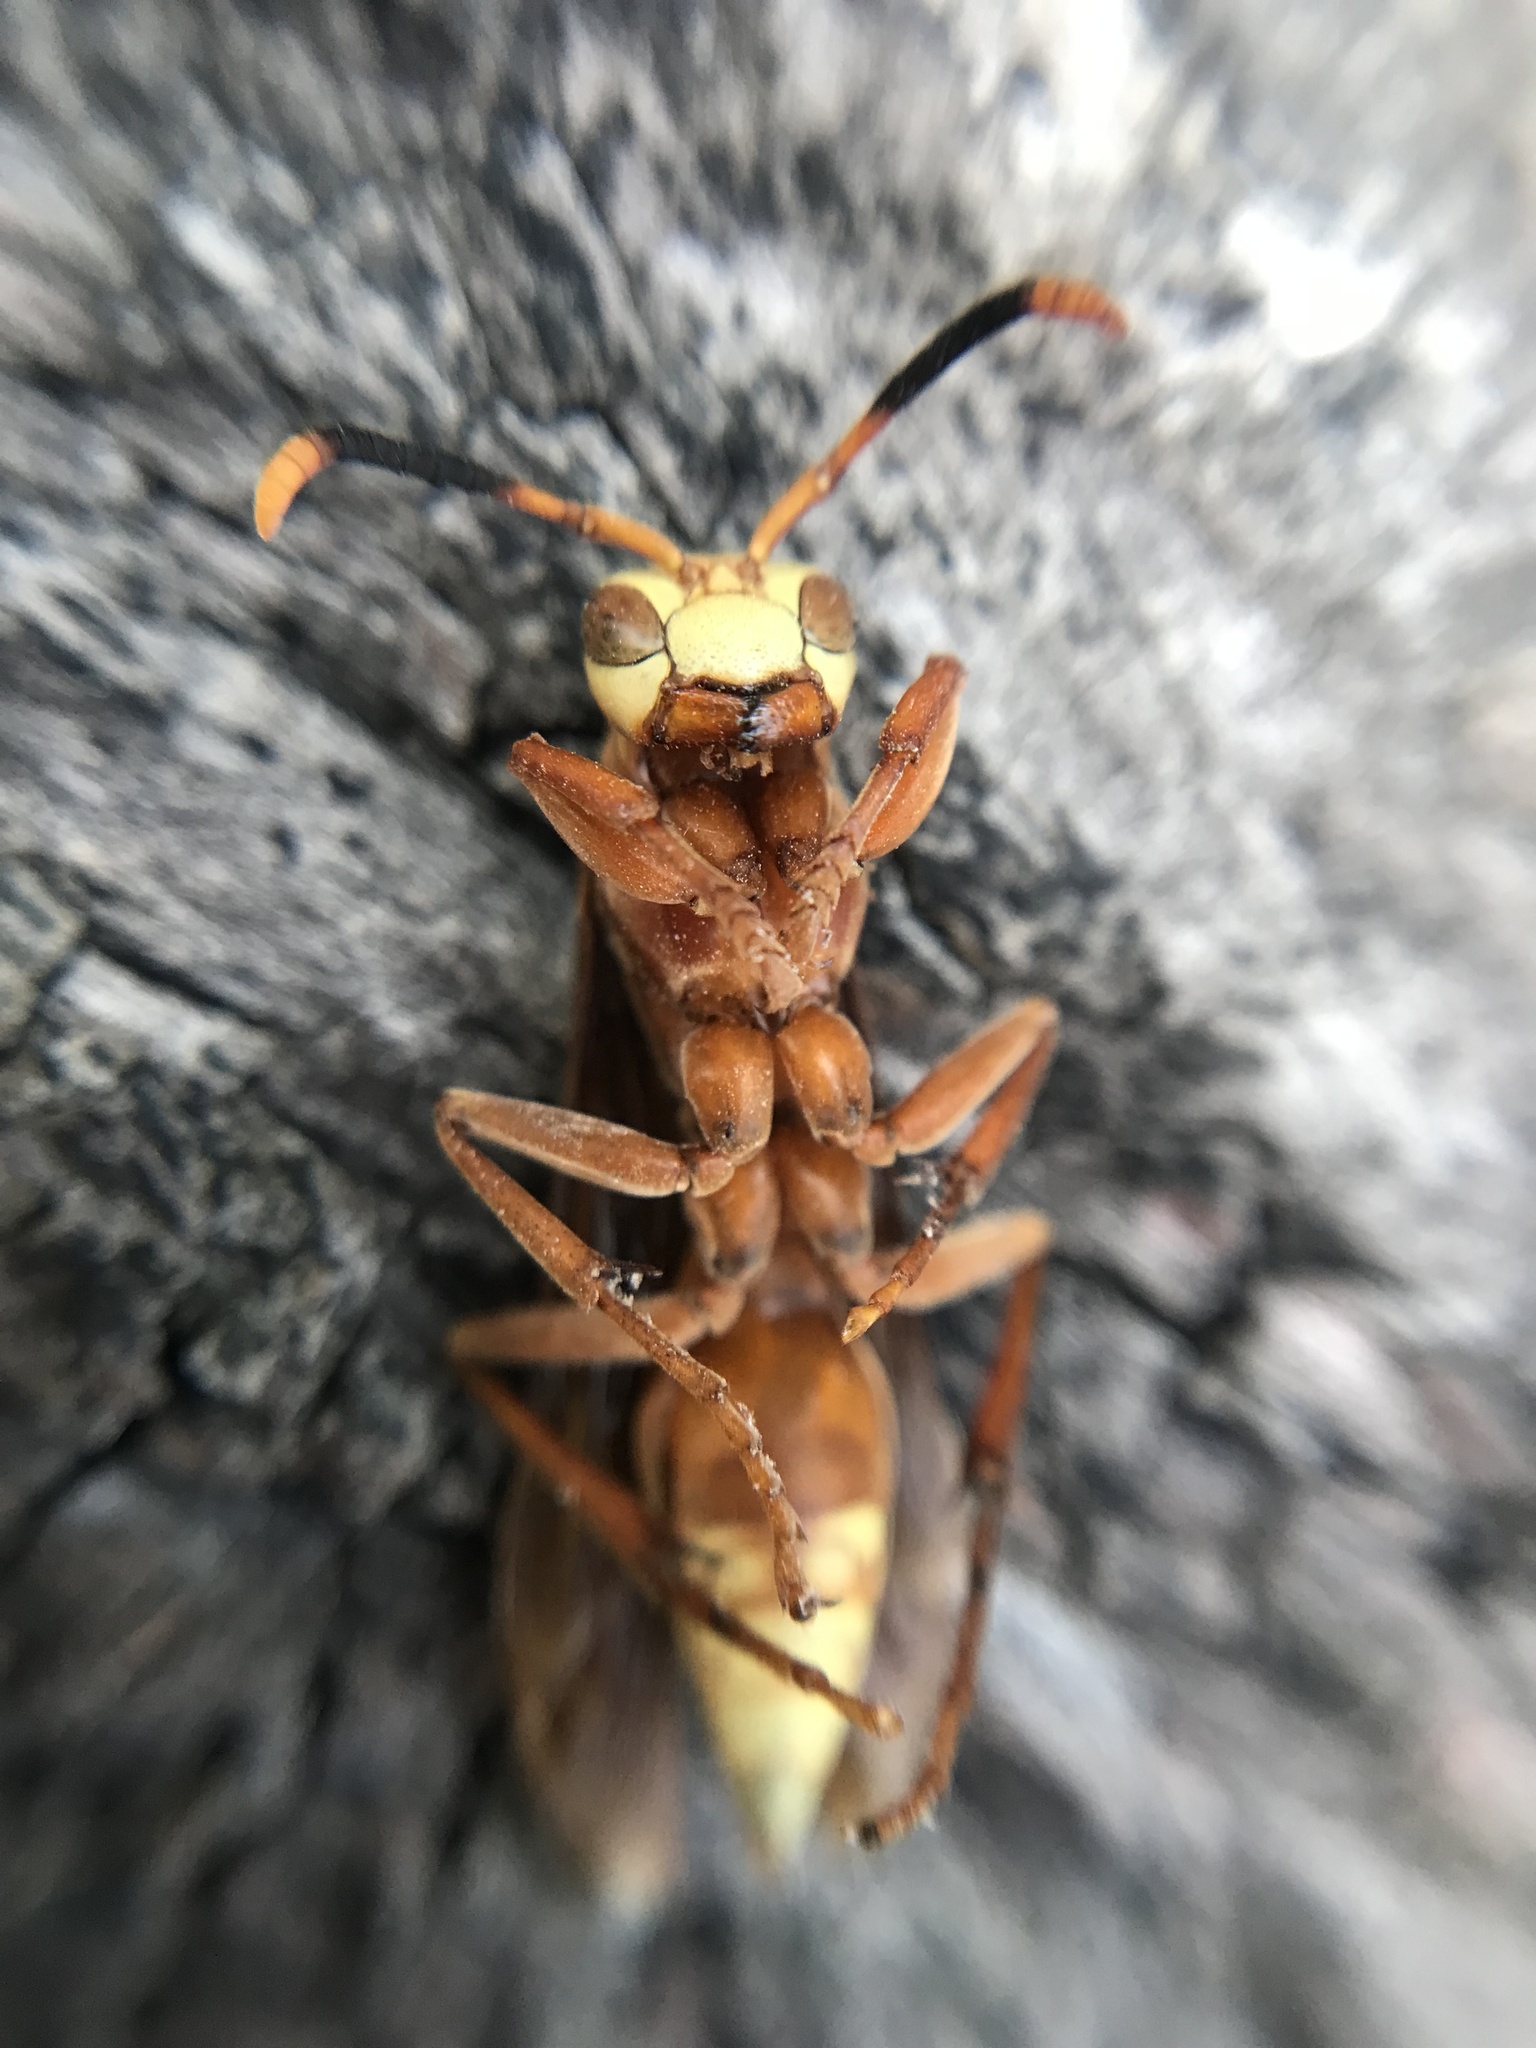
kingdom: Animalia
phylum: Arthropoda
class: Insecta
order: Hymenoptera
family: Eumenidae
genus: Polistes
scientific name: Polistes cavapyta
